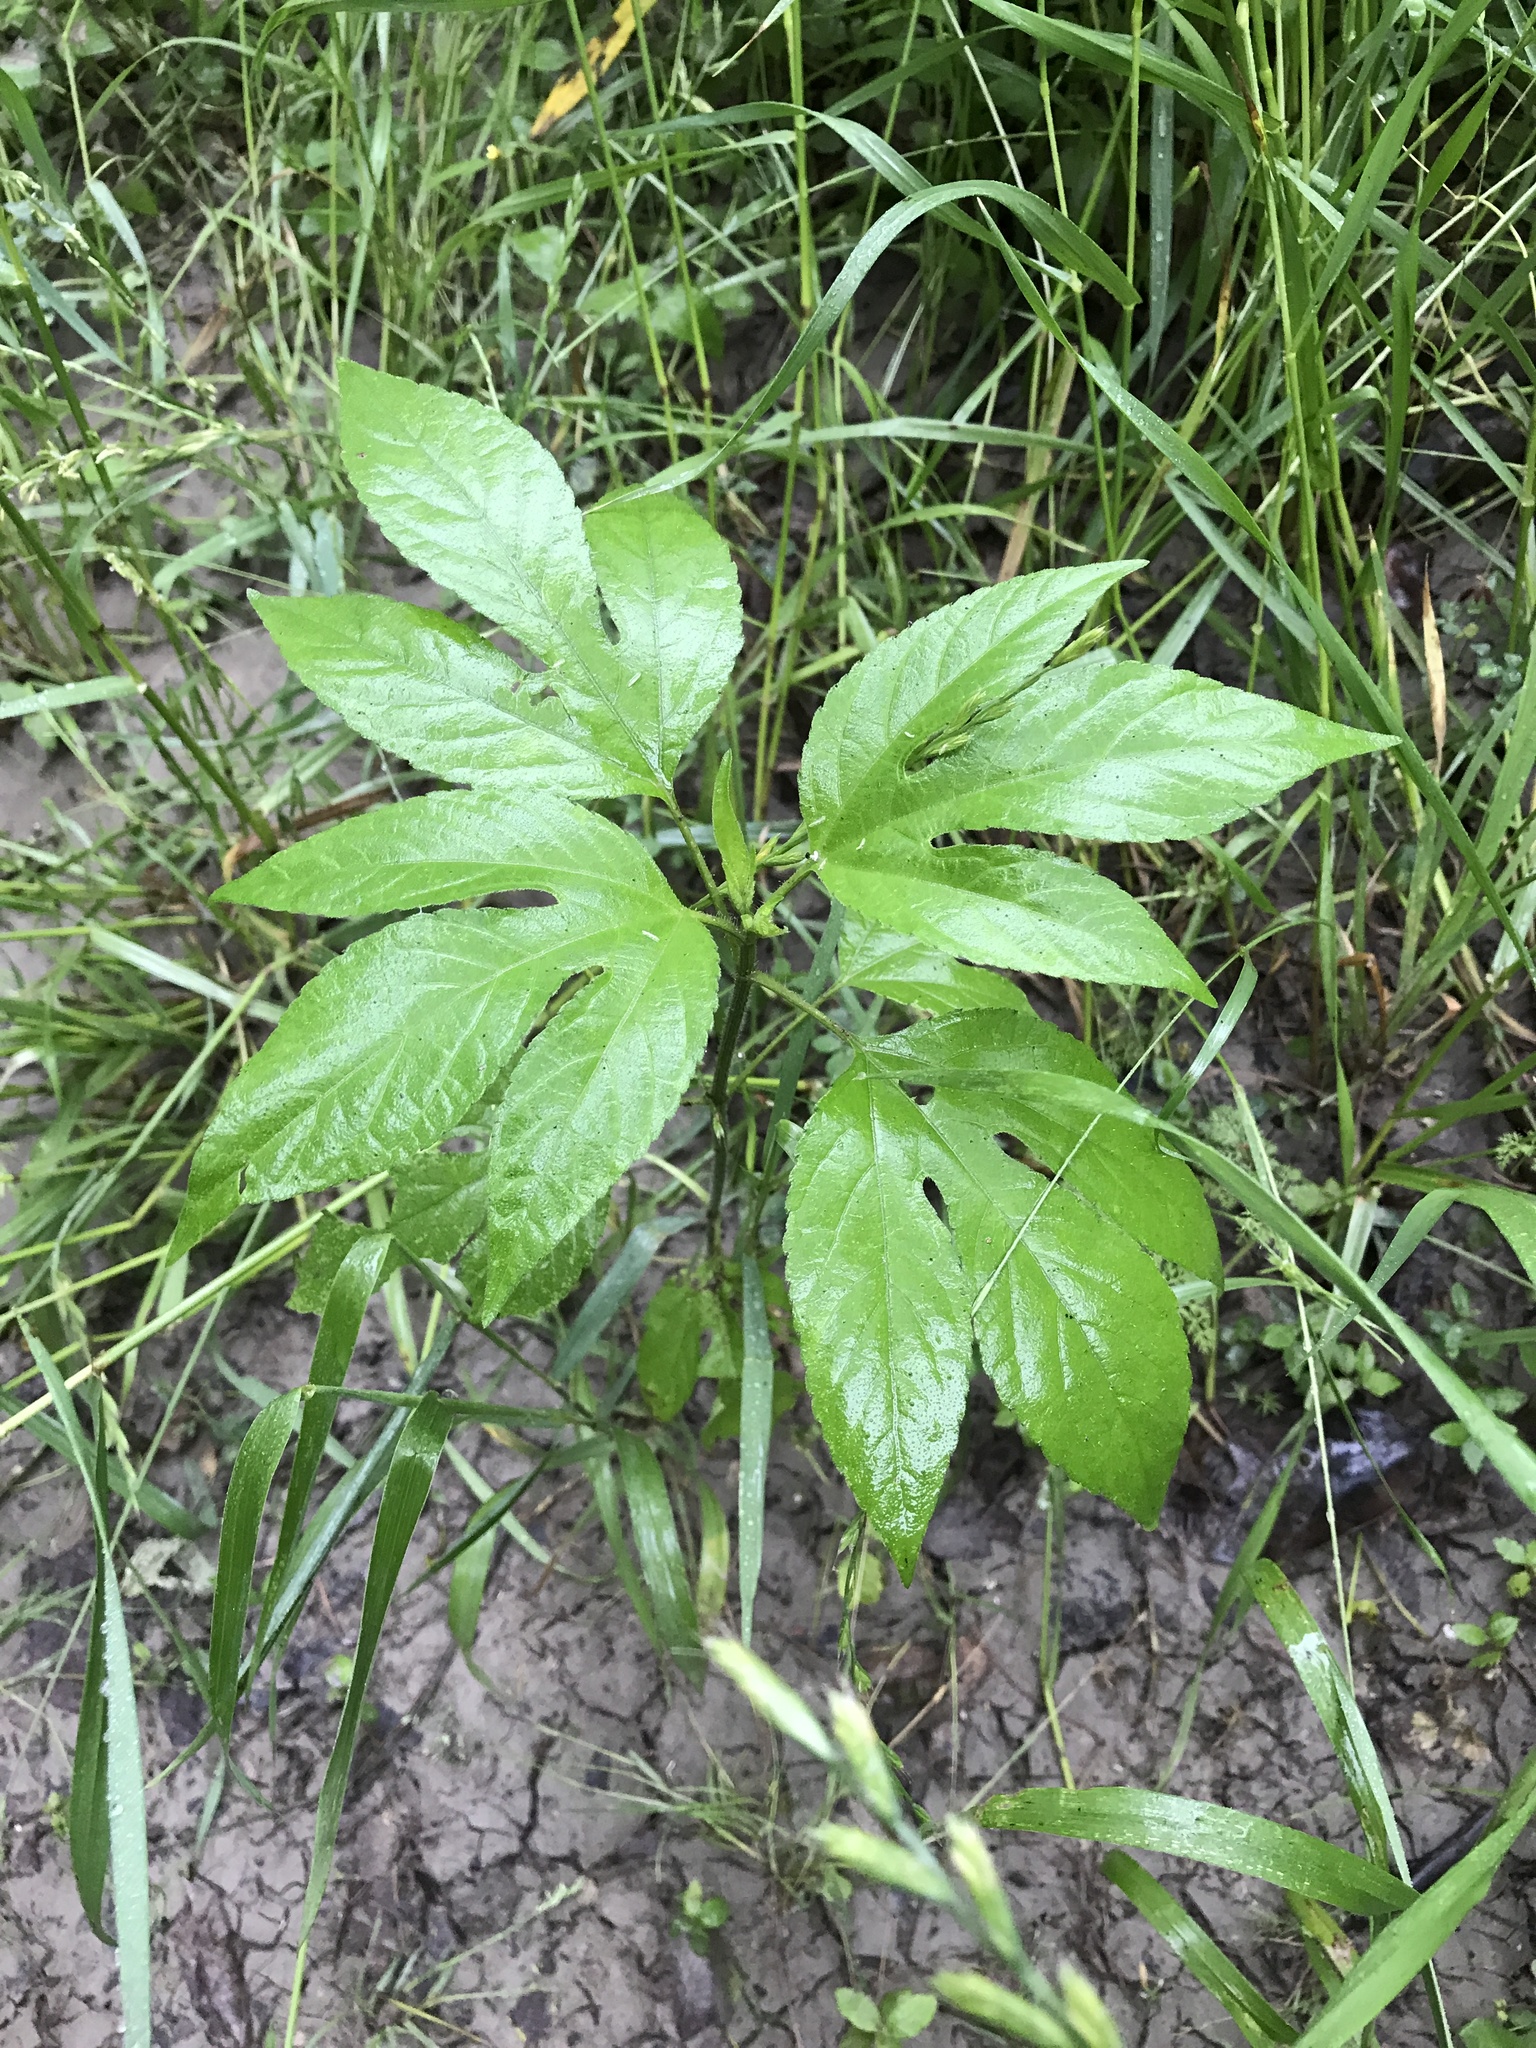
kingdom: Plantae
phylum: Tracheophyta
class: Magnoliopsida
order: Asterales
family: Asteraceae
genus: Ambrosia
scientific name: Ambrosia trifida
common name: Giant ragweed
